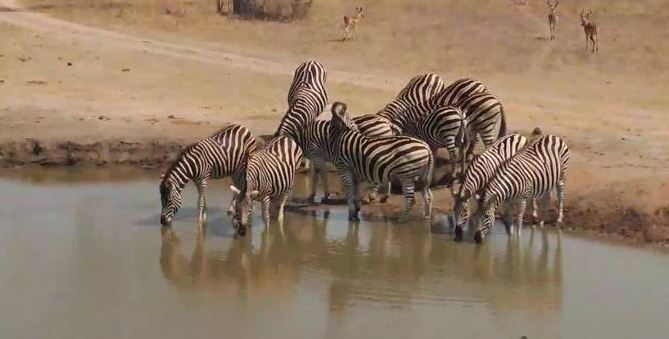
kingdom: Animalia
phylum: Chordata
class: Mammalia
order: Perissodactyla
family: Equidae
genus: Equus
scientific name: Equus quagga
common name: Plains zebra
